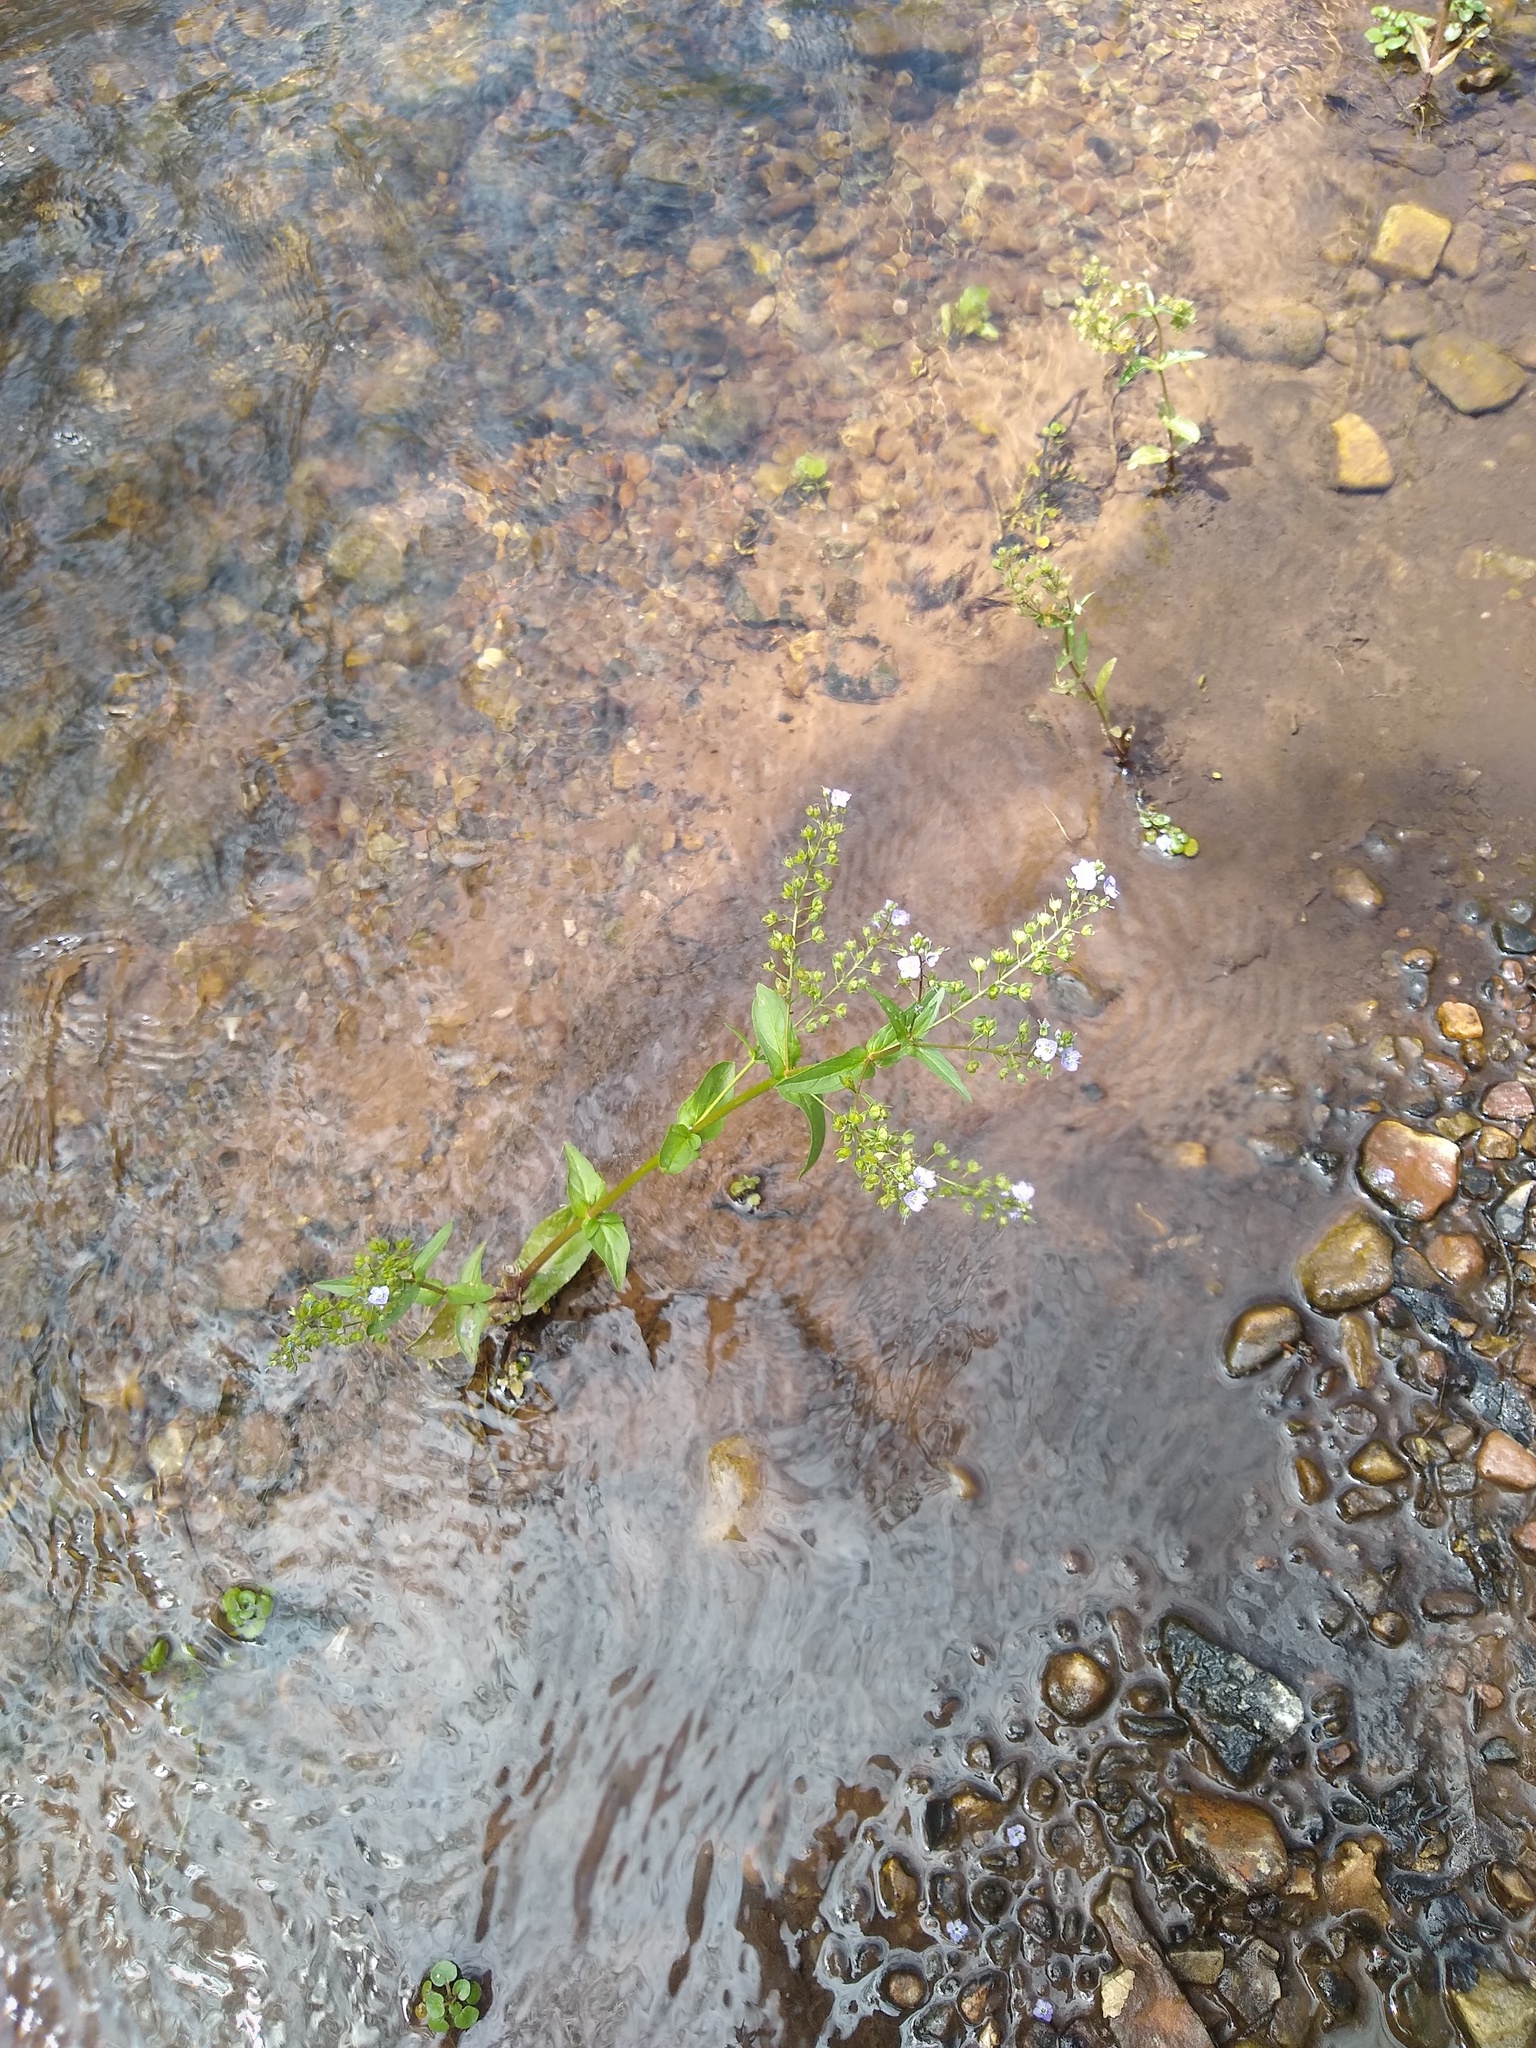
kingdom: Plantae
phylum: Tracheophyta
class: Magnoliopsida
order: Lamiales
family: Plantaginaceae
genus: Veronica
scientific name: Veronica anagallis-aquatica
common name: Water speedwell
